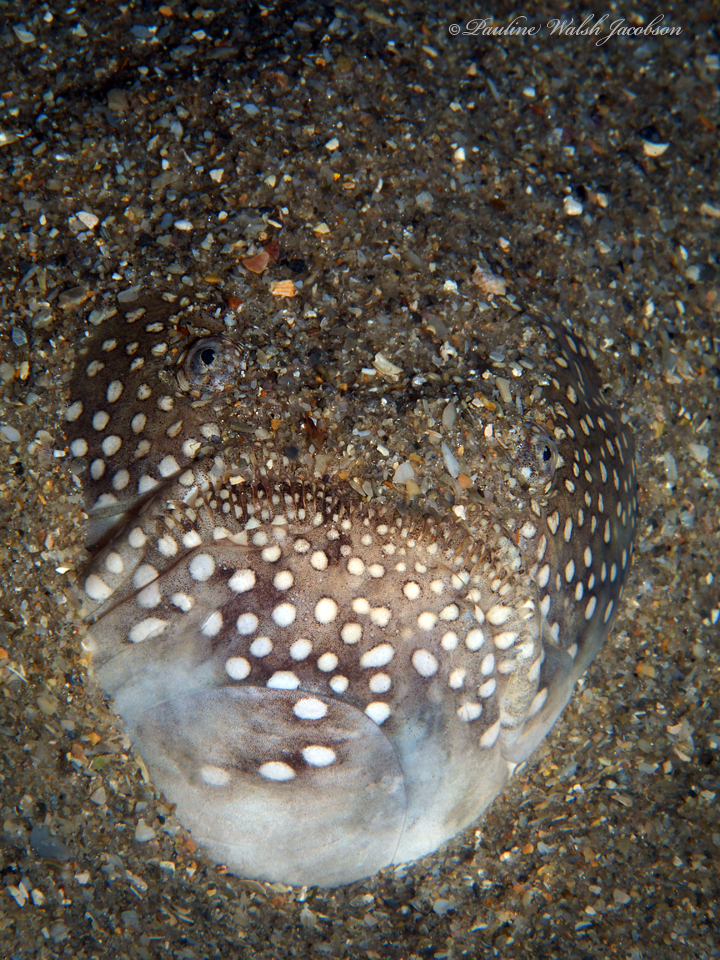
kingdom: Animalia
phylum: Chordata
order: Perciformes
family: Uranoscopidae
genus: Astroscopus
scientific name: Astroscopus y-graecum
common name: Southern stargazer
